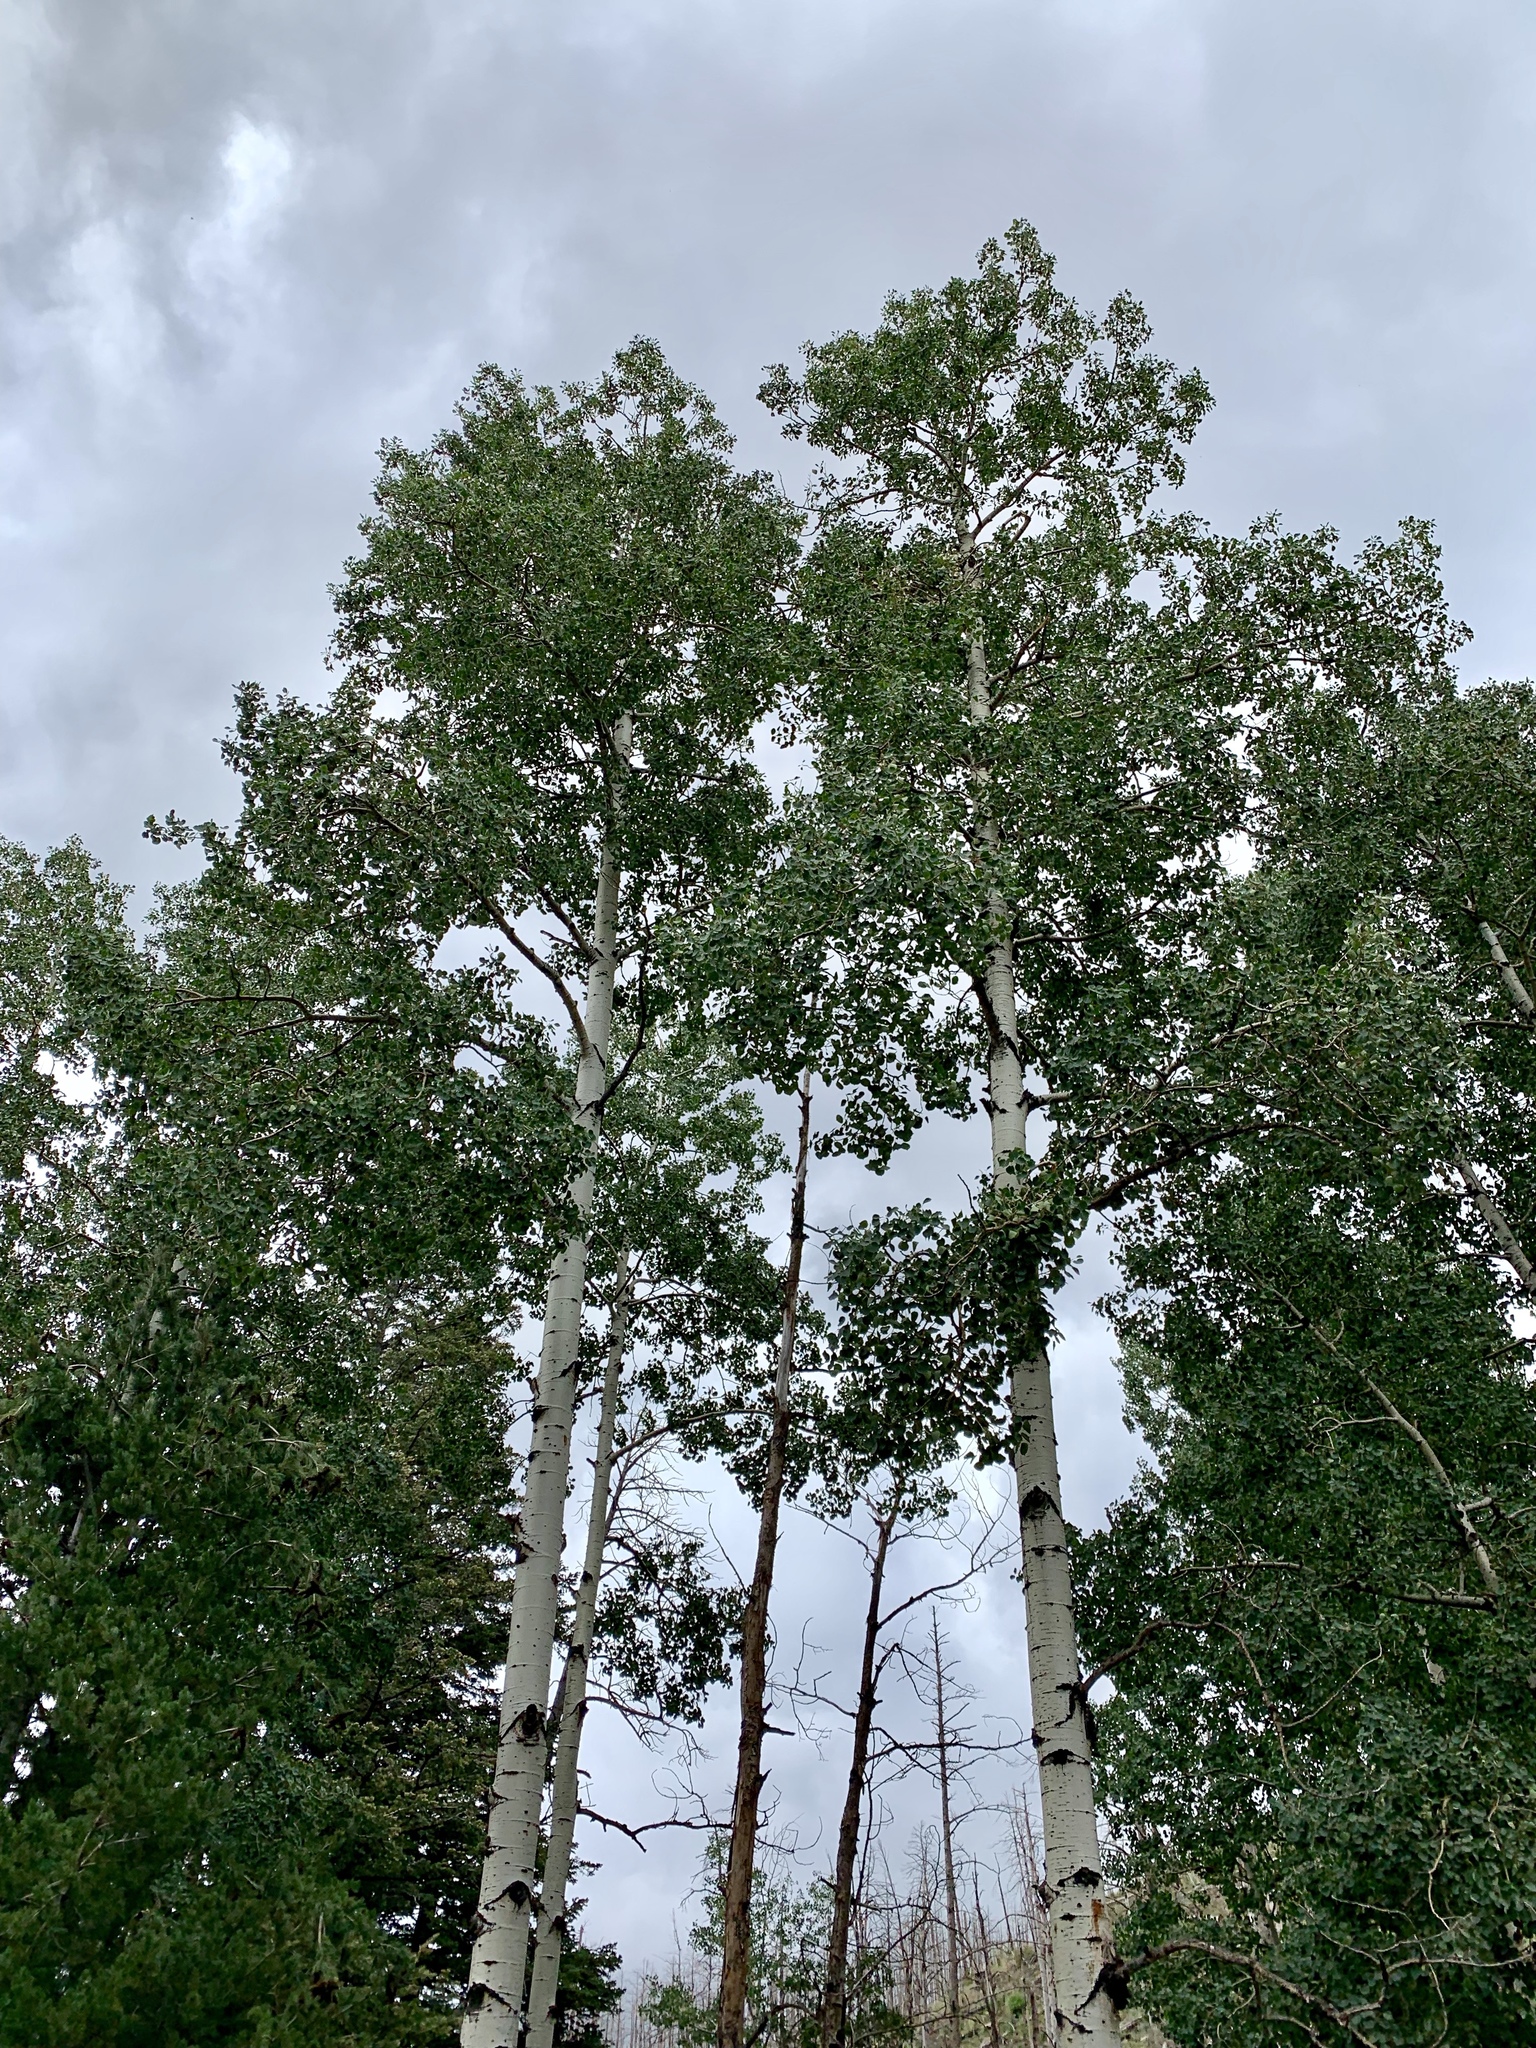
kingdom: Plantae
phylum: Tracheophyta
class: Magnoliopsida
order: Malpighiales
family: Salicaceae
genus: Populus
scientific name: Populus tremuloides
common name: Quaking aspen
